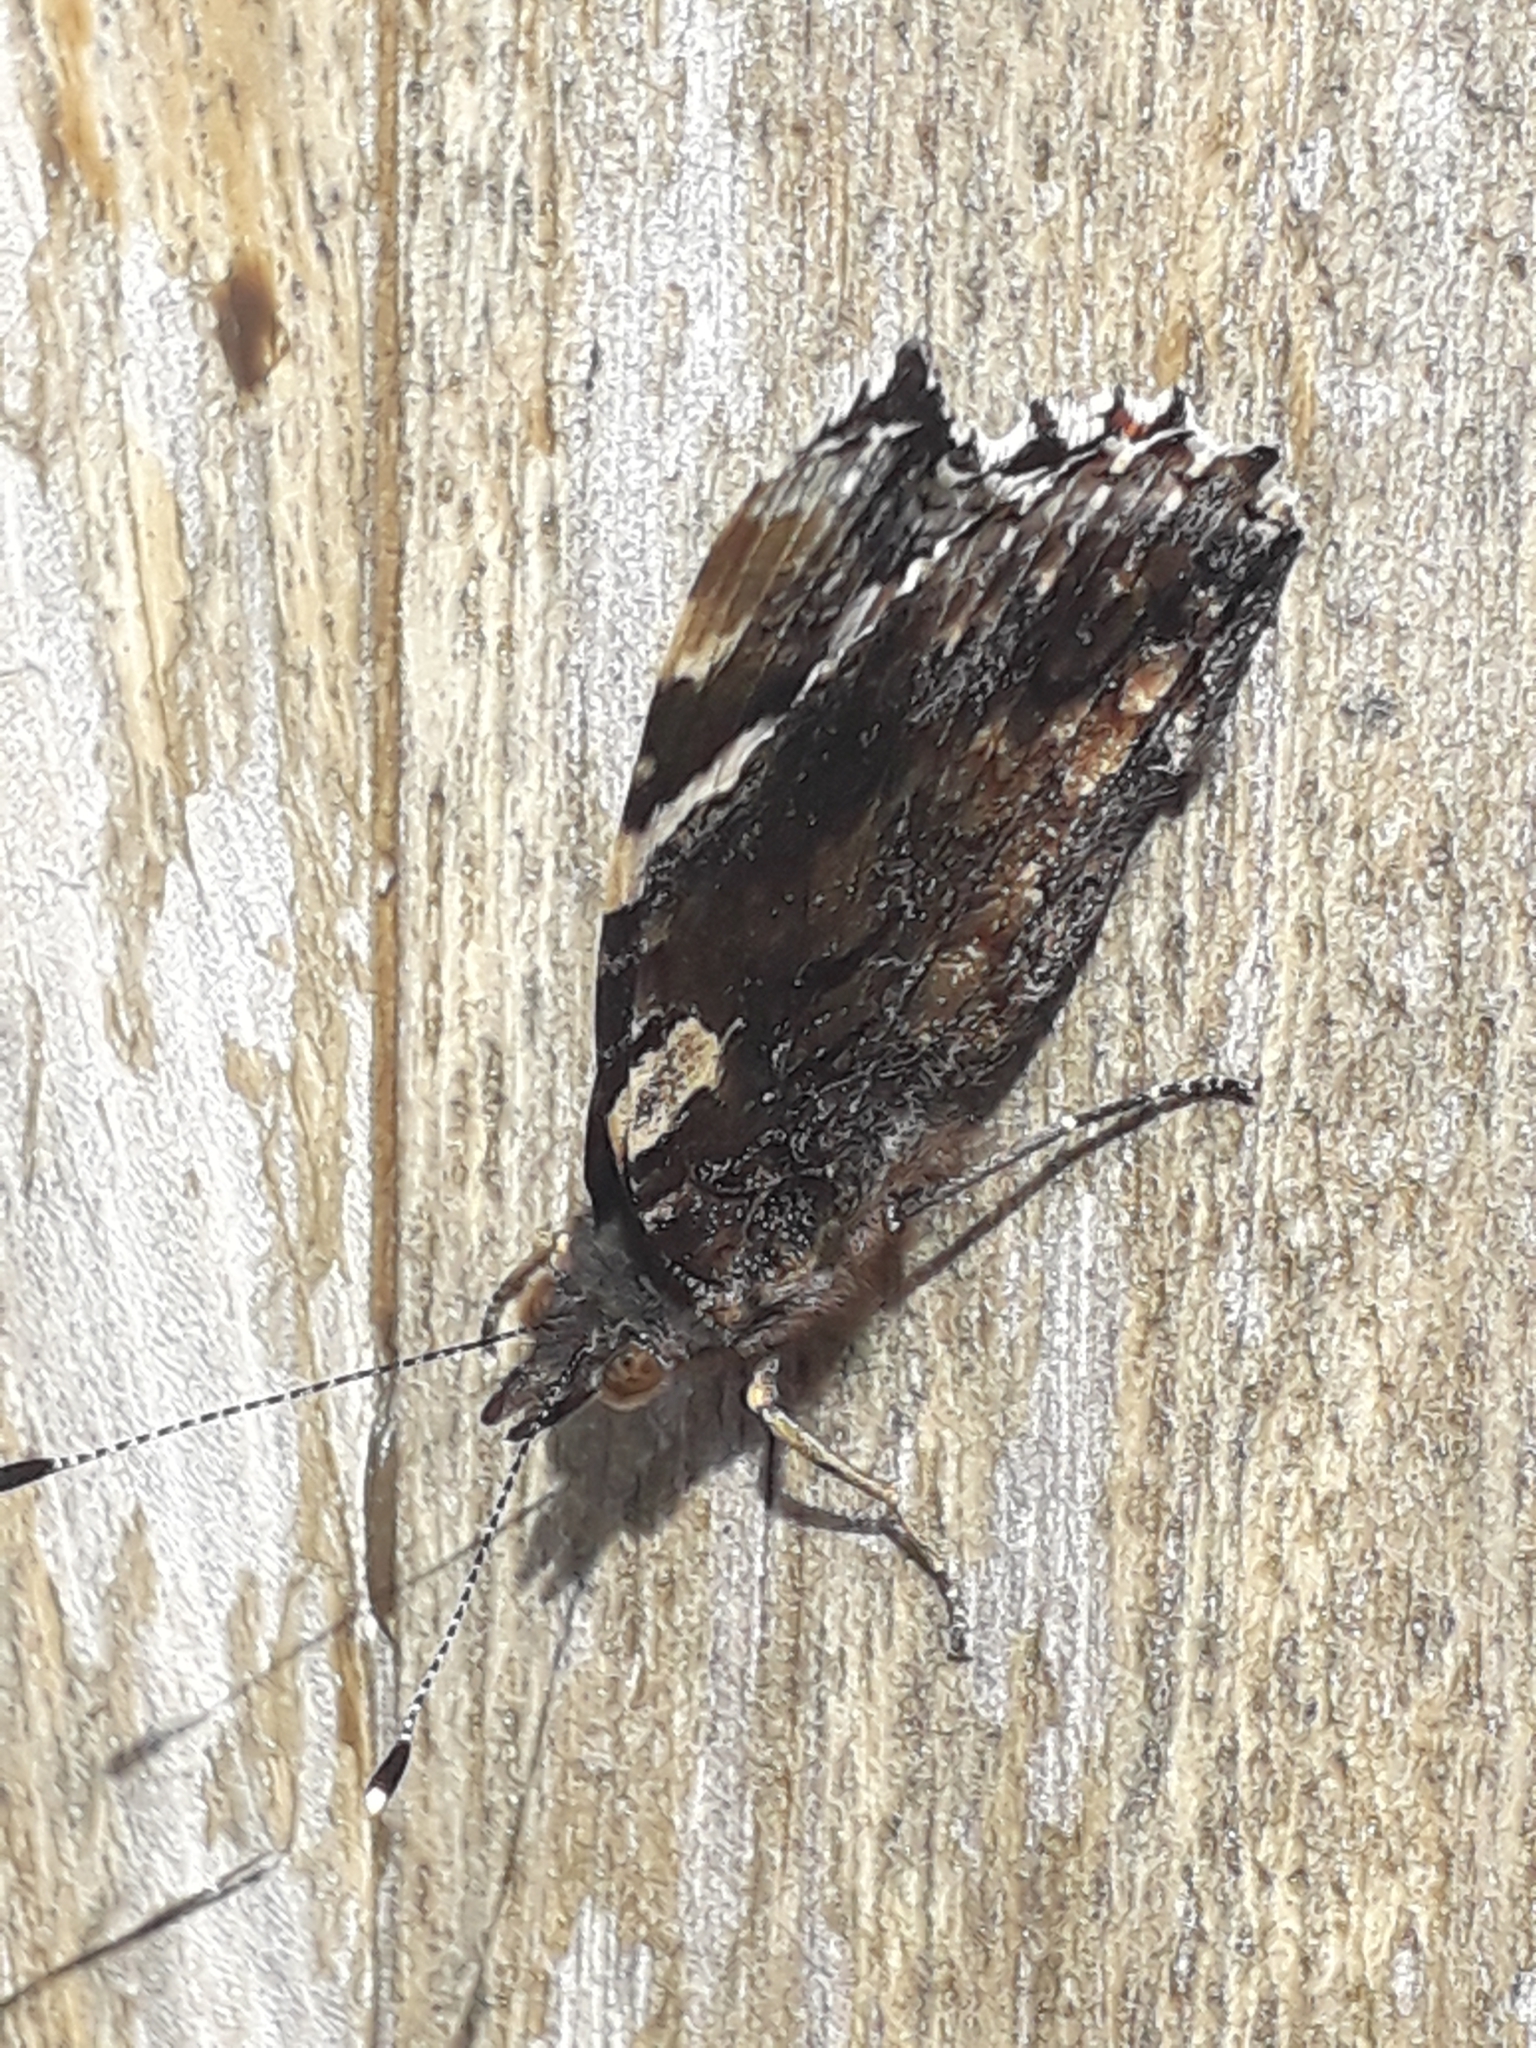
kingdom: Animalia
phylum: Arthropoda
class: Insecta
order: Lepidoptera
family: Nymphalidae
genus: Vanessa
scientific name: Vanessa atalanta
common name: Red admiral
